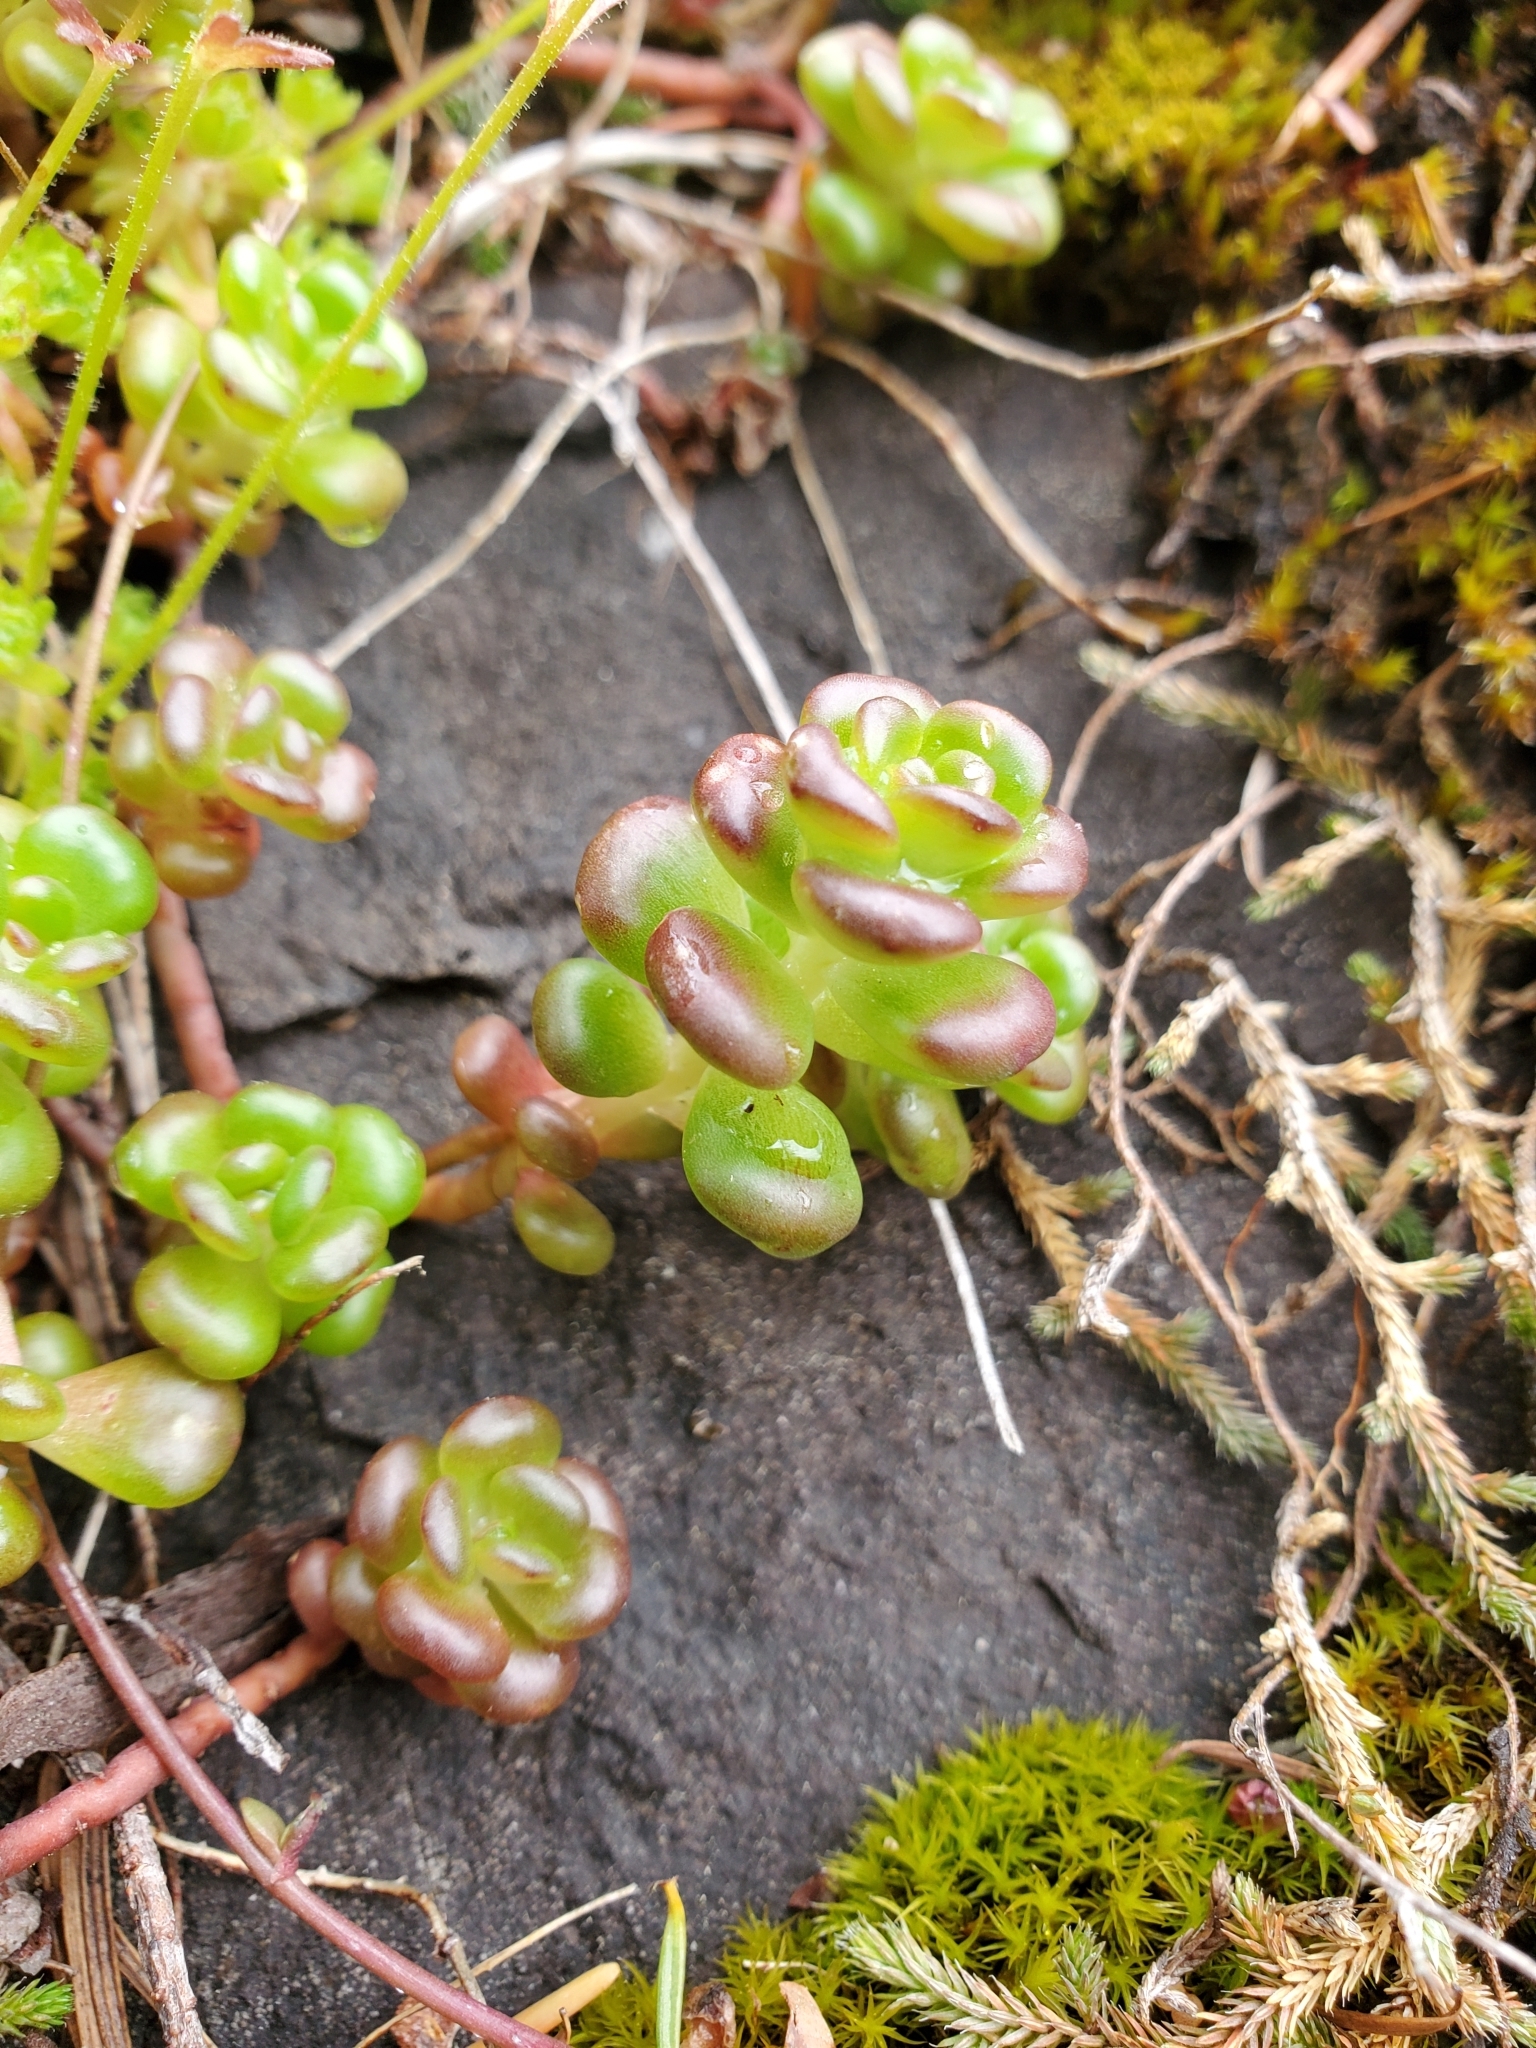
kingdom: Plantae
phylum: Tracheophyta
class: Magnoliopsida
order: Saxifragales
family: Crassulaceae
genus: Sedum
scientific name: Sedum oreganum
